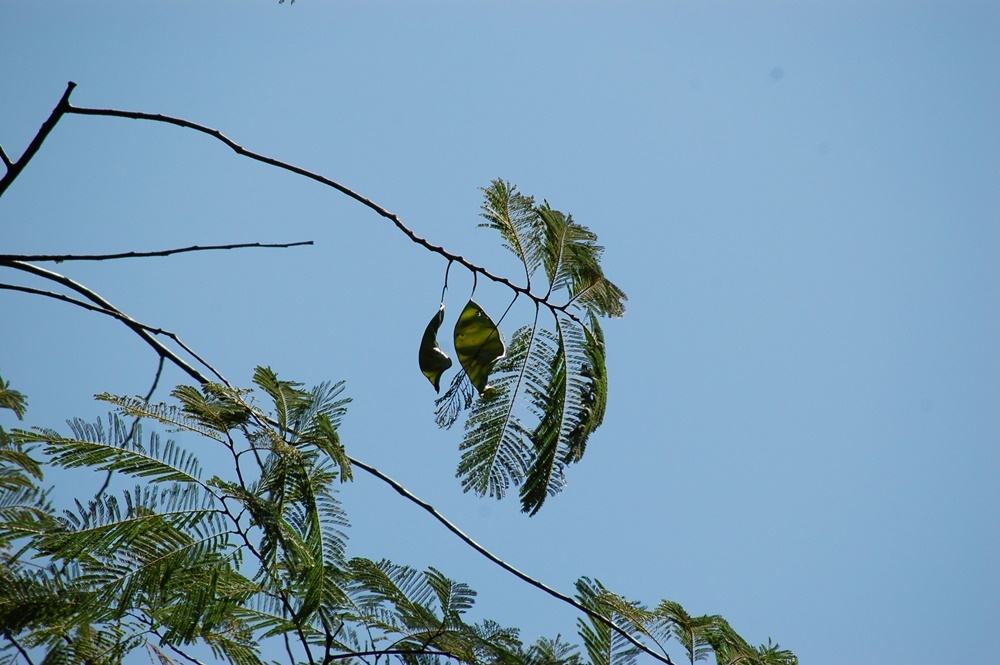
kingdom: Plantae
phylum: Tracheophyta
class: Magnoliopsida
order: Fabales
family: Fabaceae
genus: Lysiloma
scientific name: Lysiloma divaricatum
